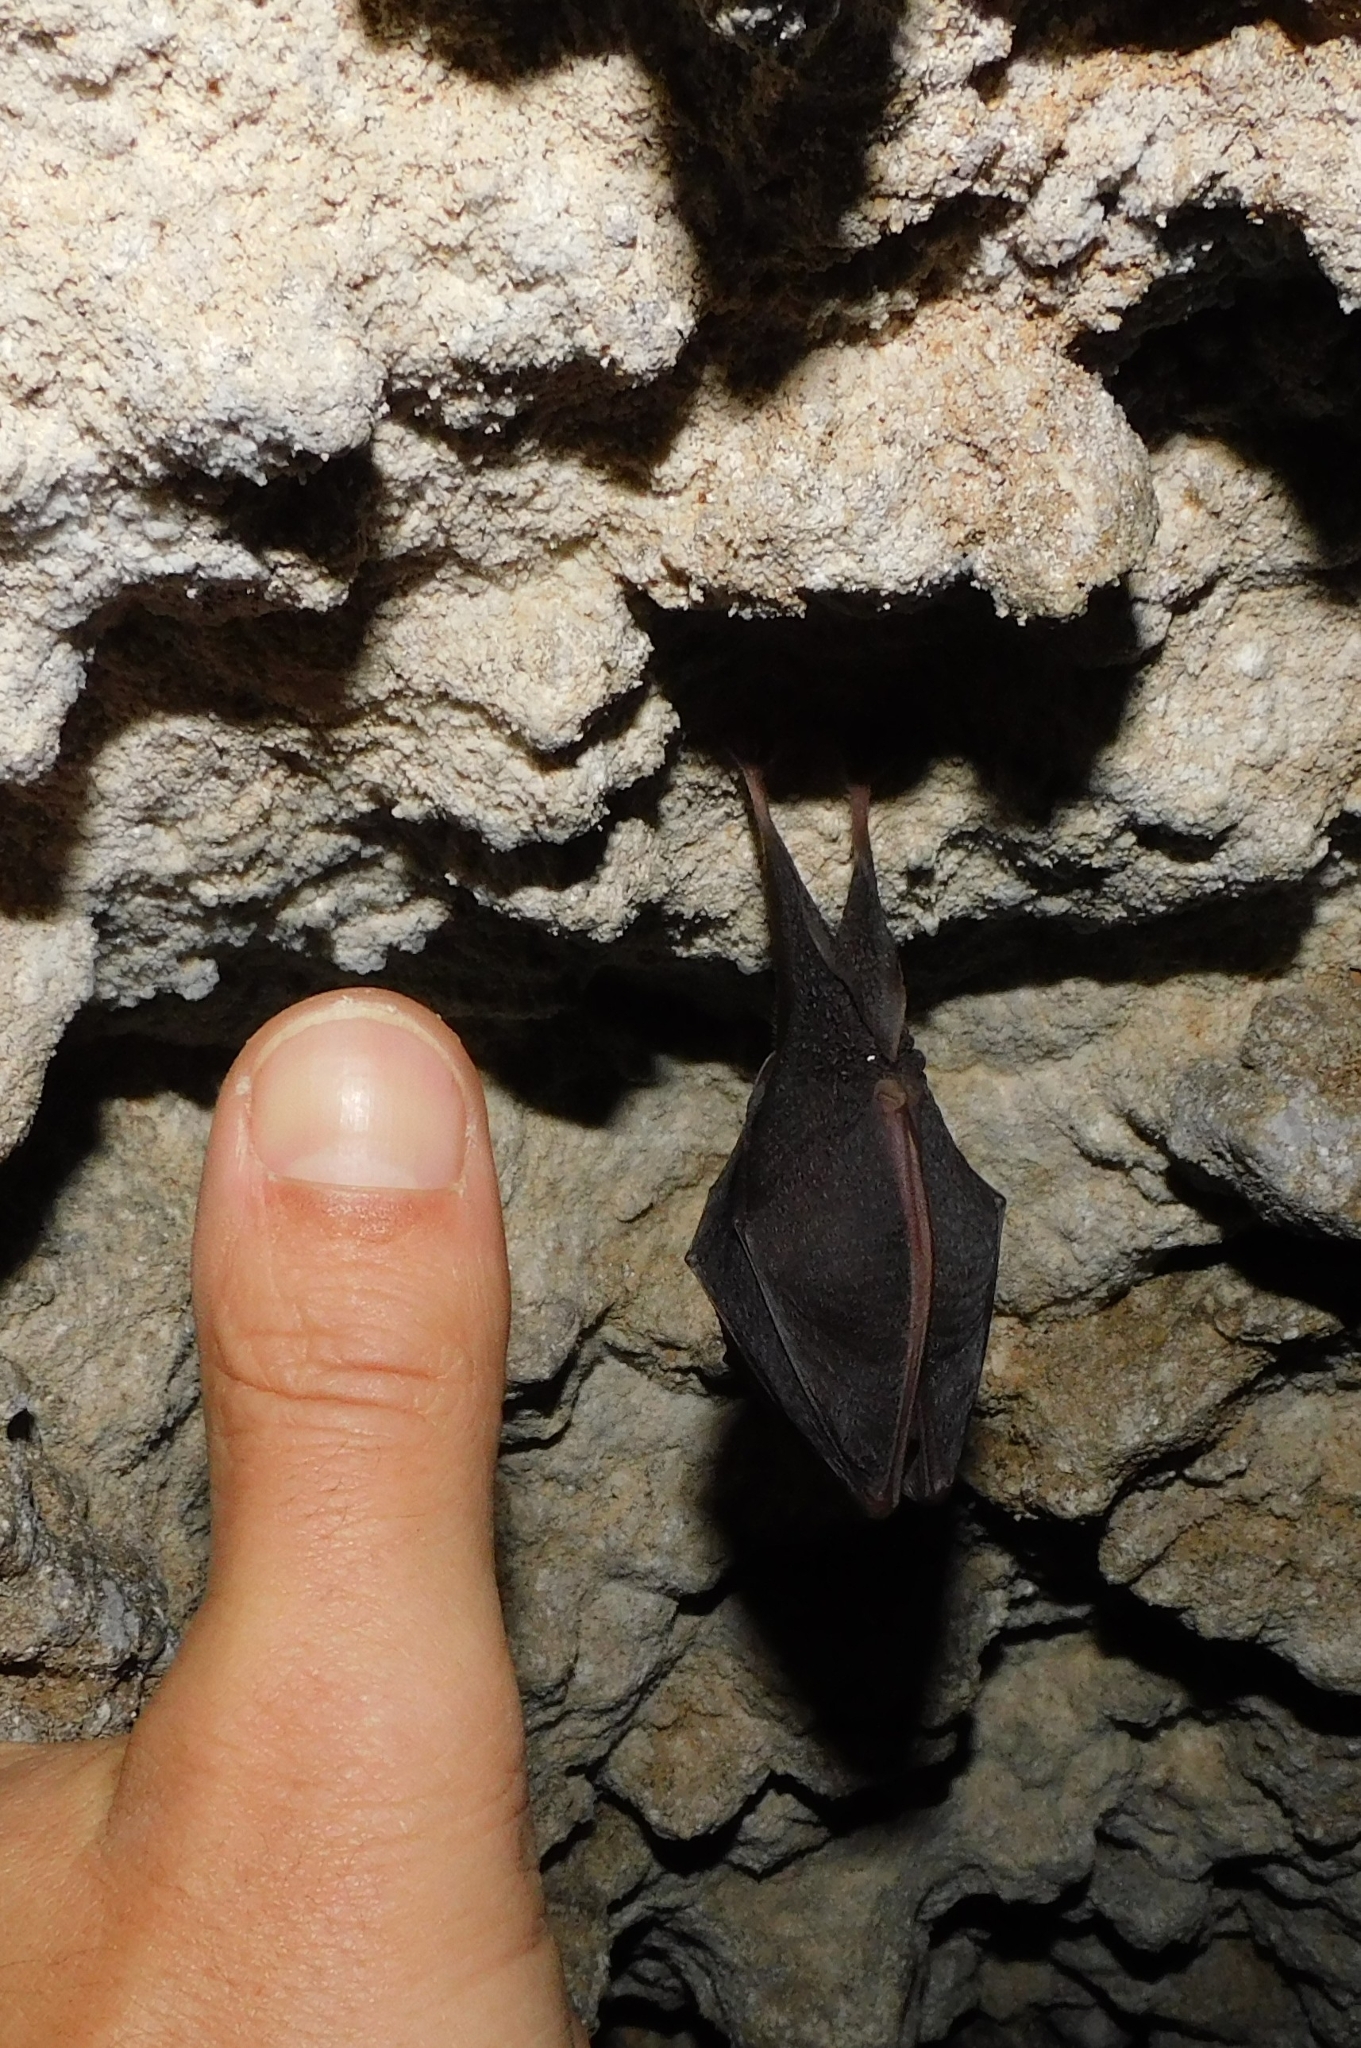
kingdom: Animalia
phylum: Chordata
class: Mammalia
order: Chiroptera
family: Rhinolophidae
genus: Rhinolophus
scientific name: Rhinolophus hipposideros
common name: Lesser horseshoe bat
